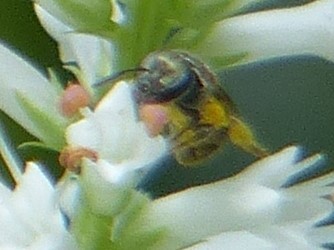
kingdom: Animalia
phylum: Arthropoda
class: Insecta
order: Hymenoptera
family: Halictidae
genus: Dialictus
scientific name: Dialictus
